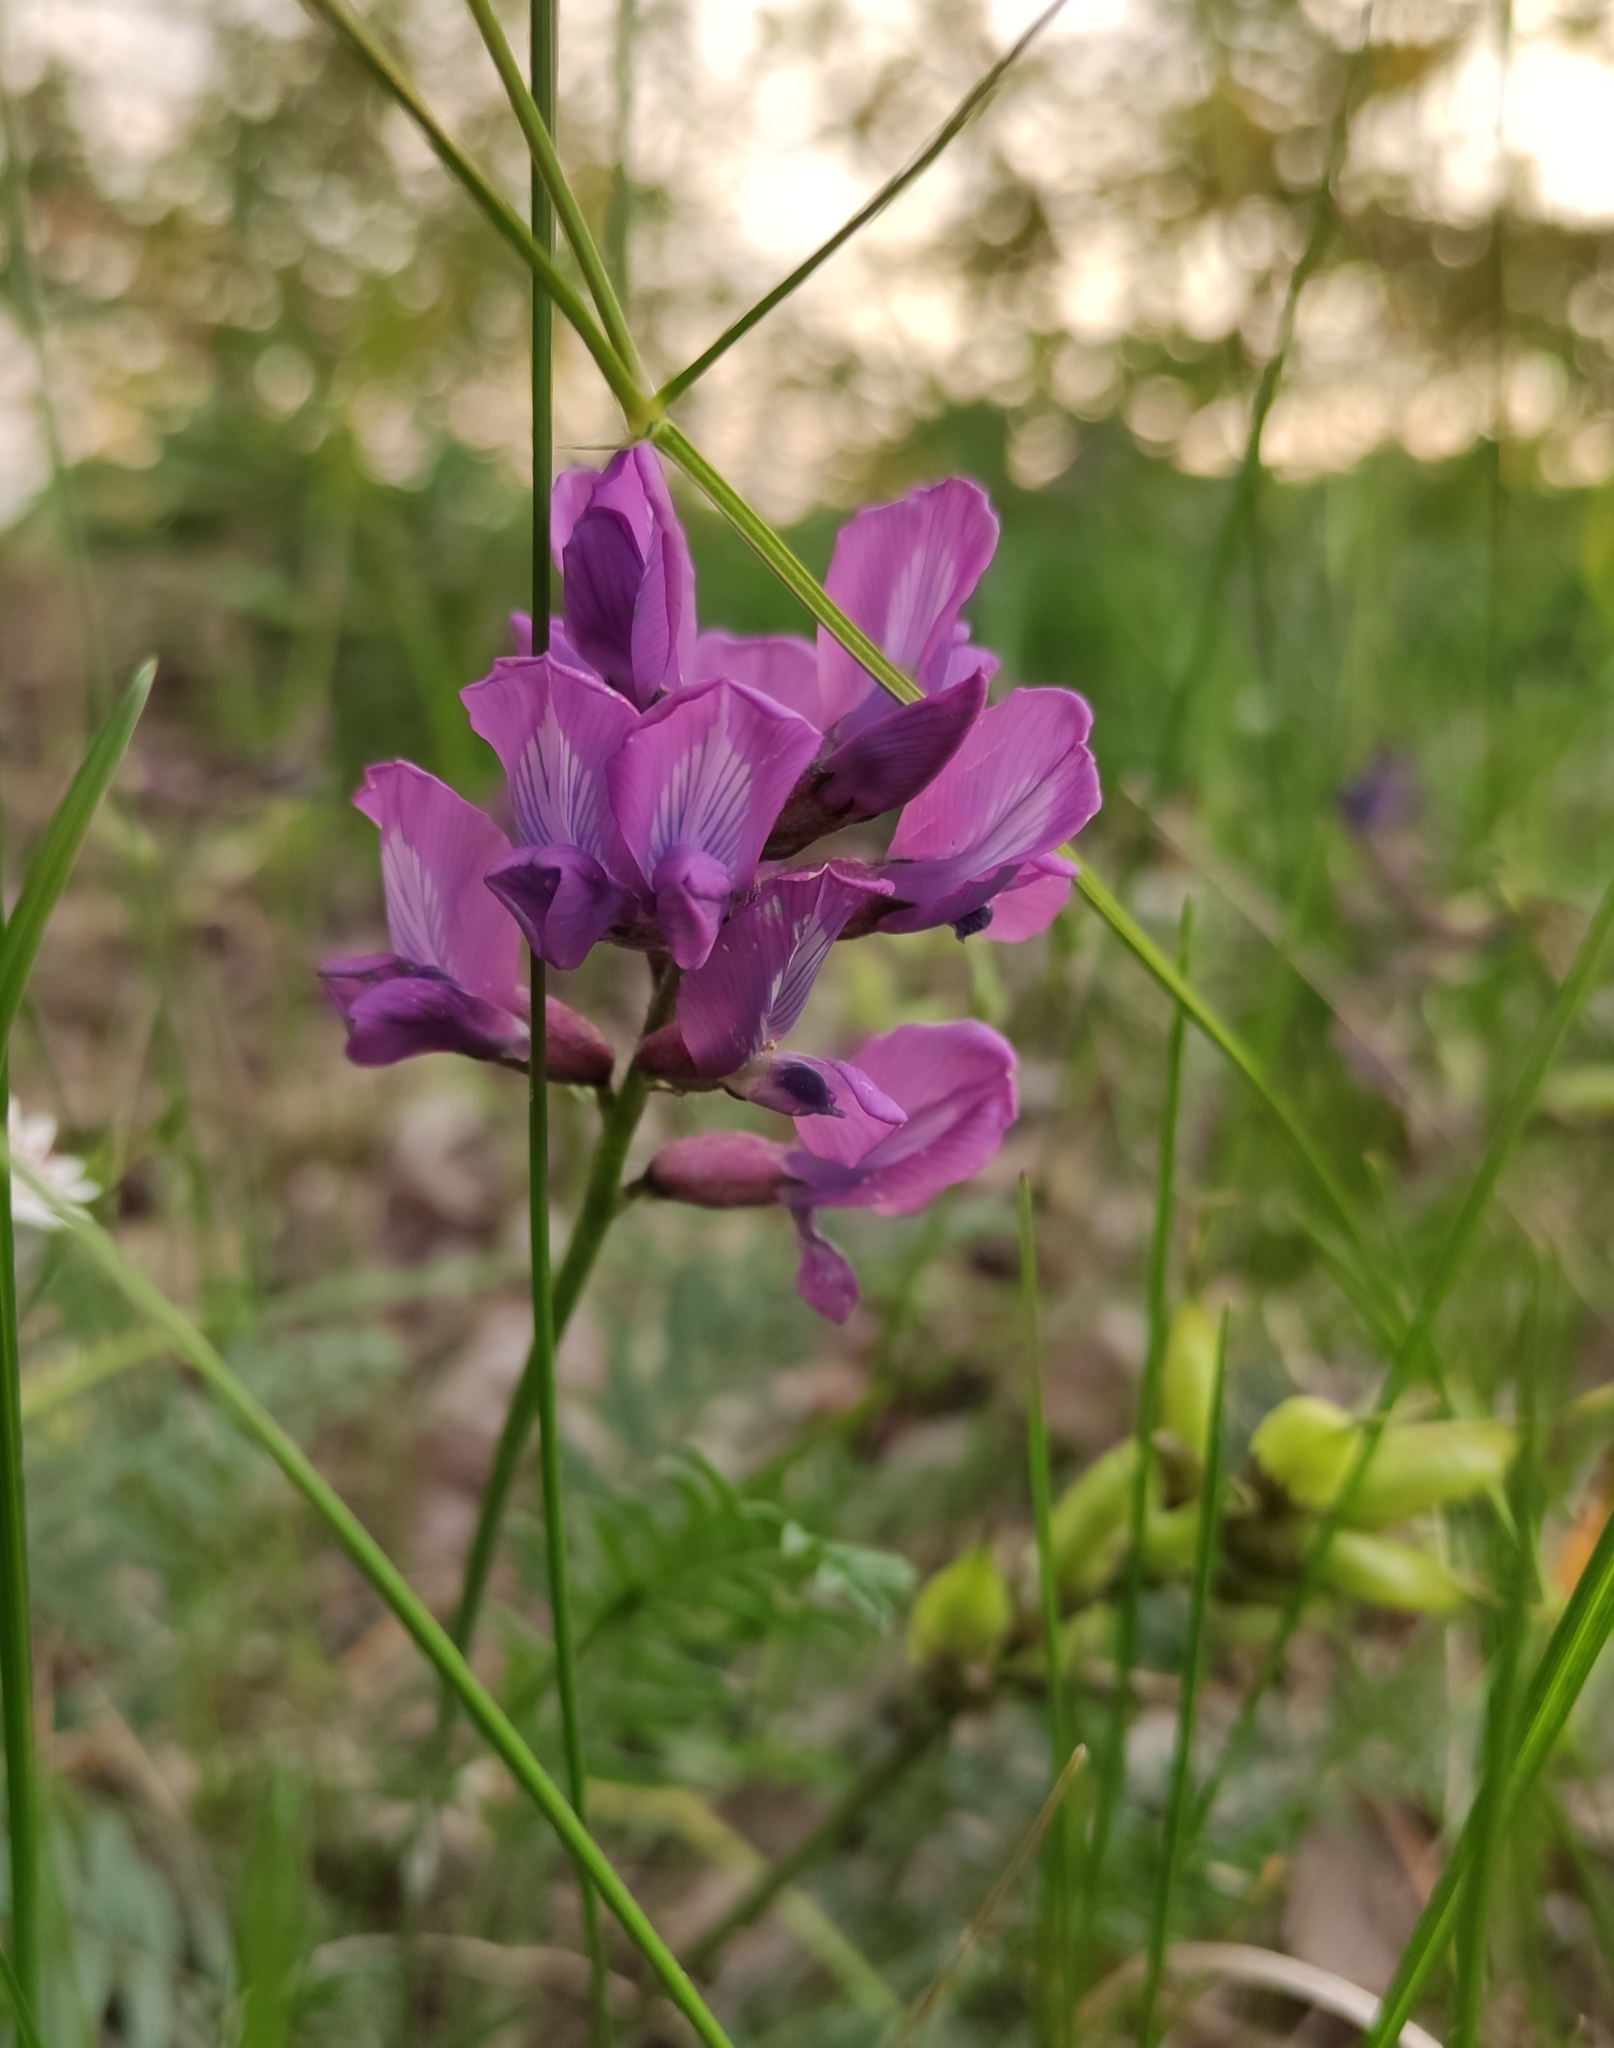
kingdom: Plantae
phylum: Tracheophyta
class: Magnoliopsida
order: Fabales
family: Fabaceae
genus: Oxytropis
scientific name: Oxytropis longirostra
